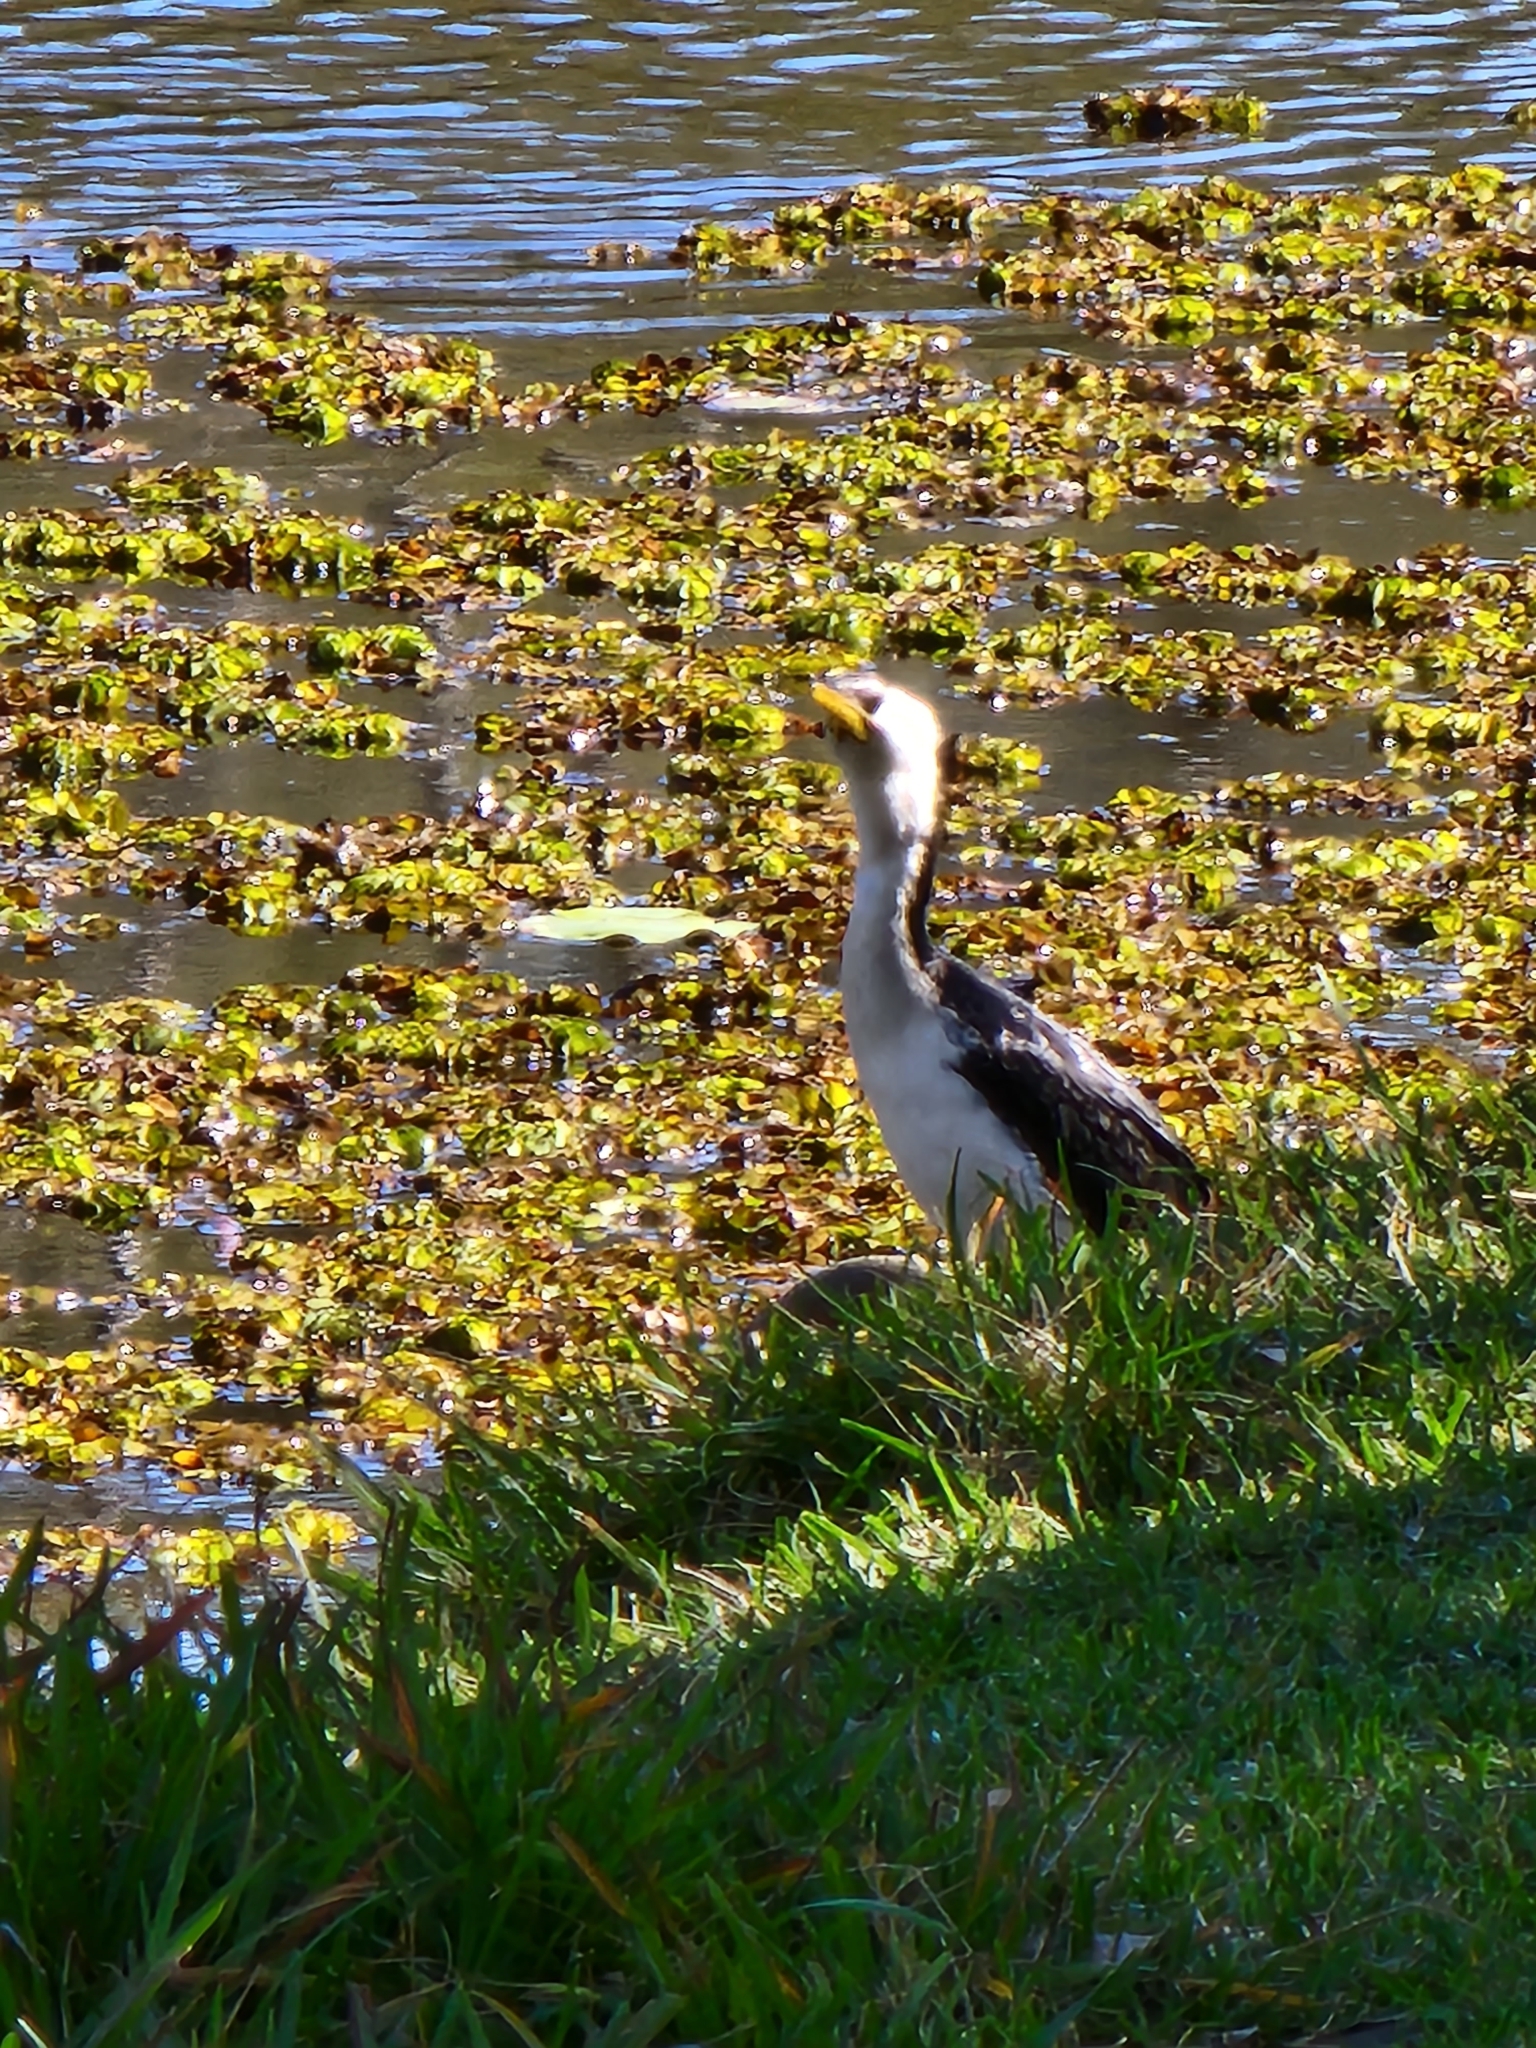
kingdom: Animalia
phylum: Chordata
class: Aves
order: Suliformes
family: Phalacrocoracidae
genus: Microcarbo
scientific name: Microcarbo melanoleucos
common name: Little pied cormorant
